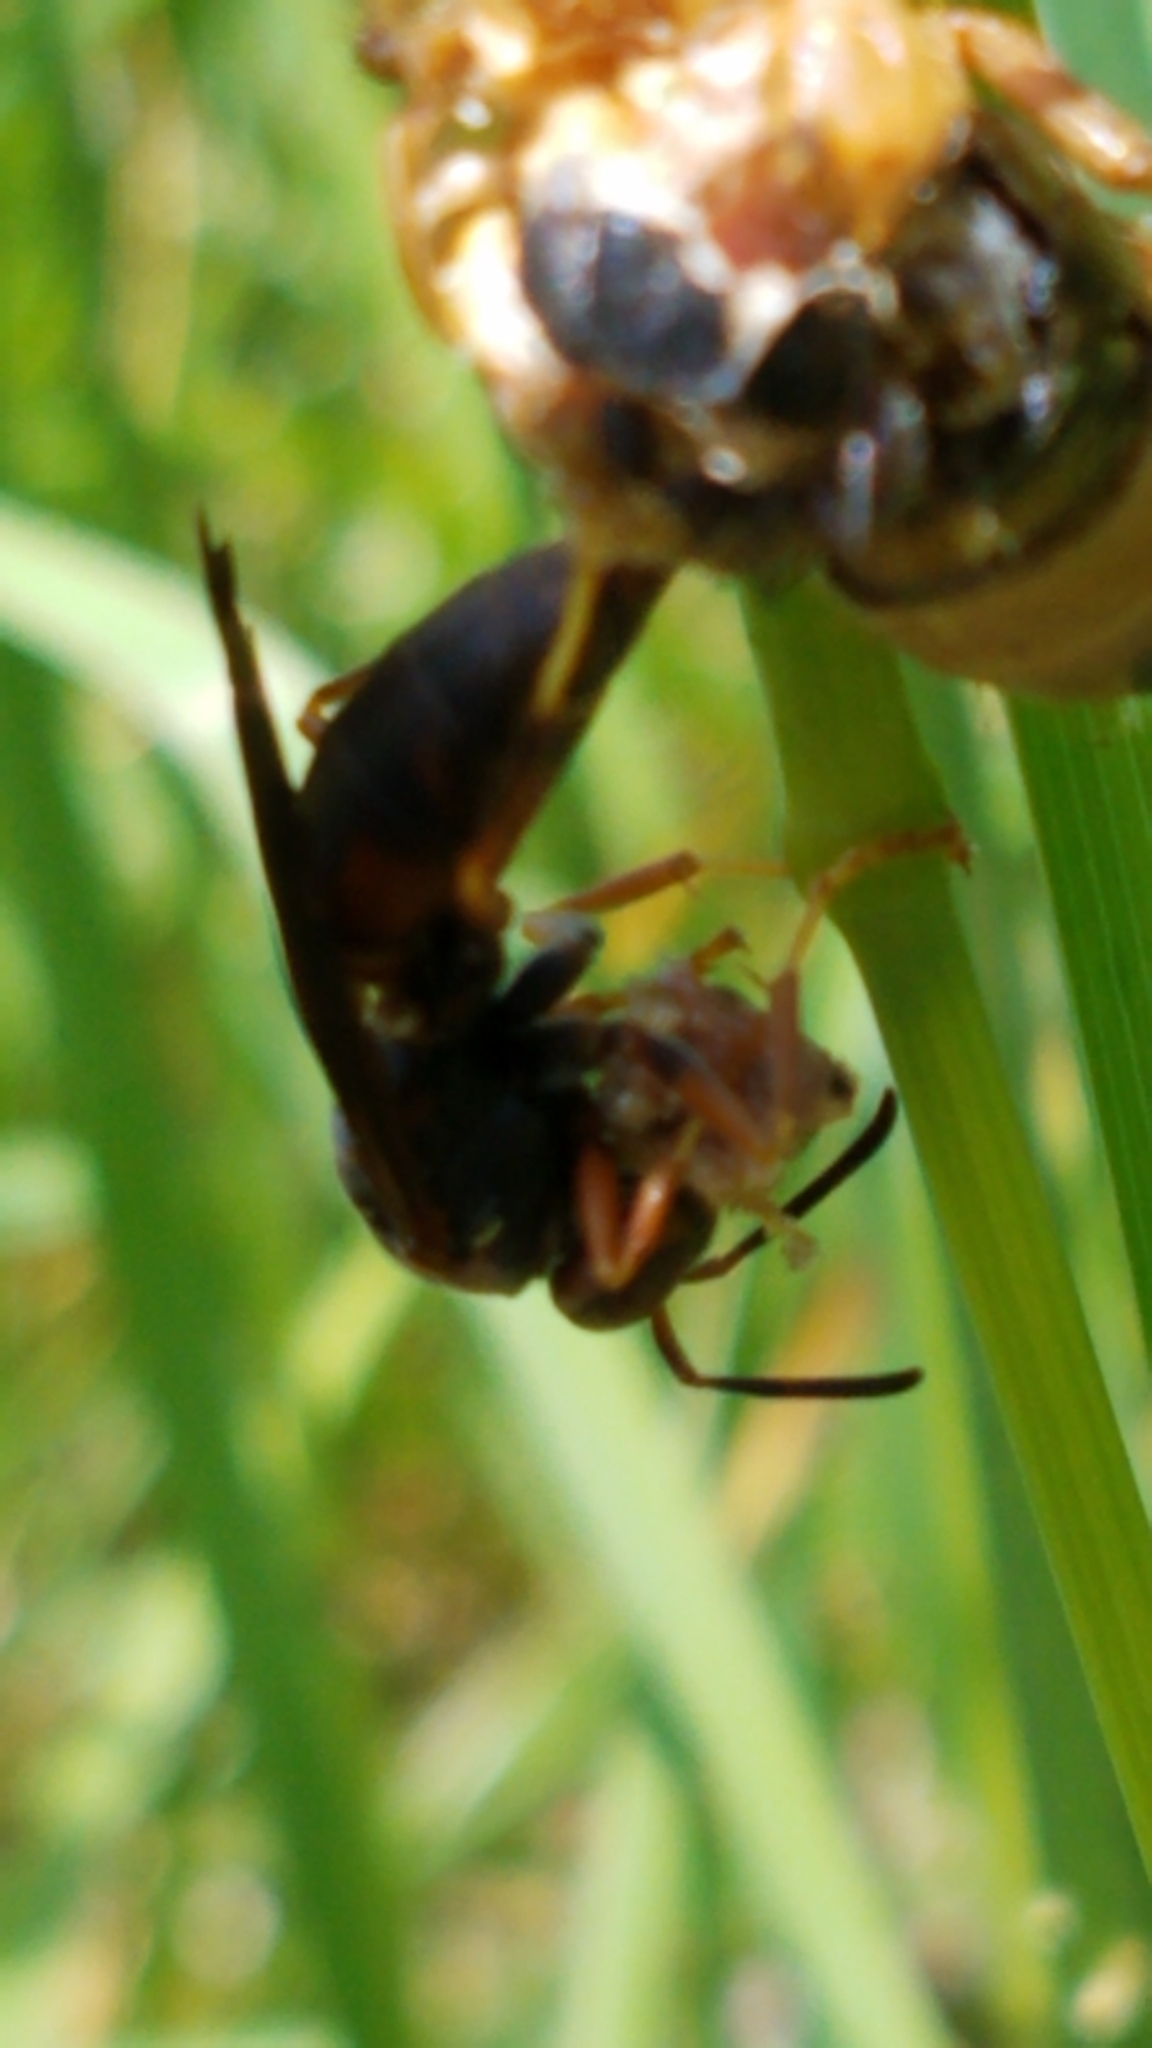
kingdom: Animalia
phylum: Arthropoda
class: Insecta
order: Hymenoptera
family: Eumenidae
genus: Polistes
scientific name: Polistes fuscatus
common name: Dark paper wasp
